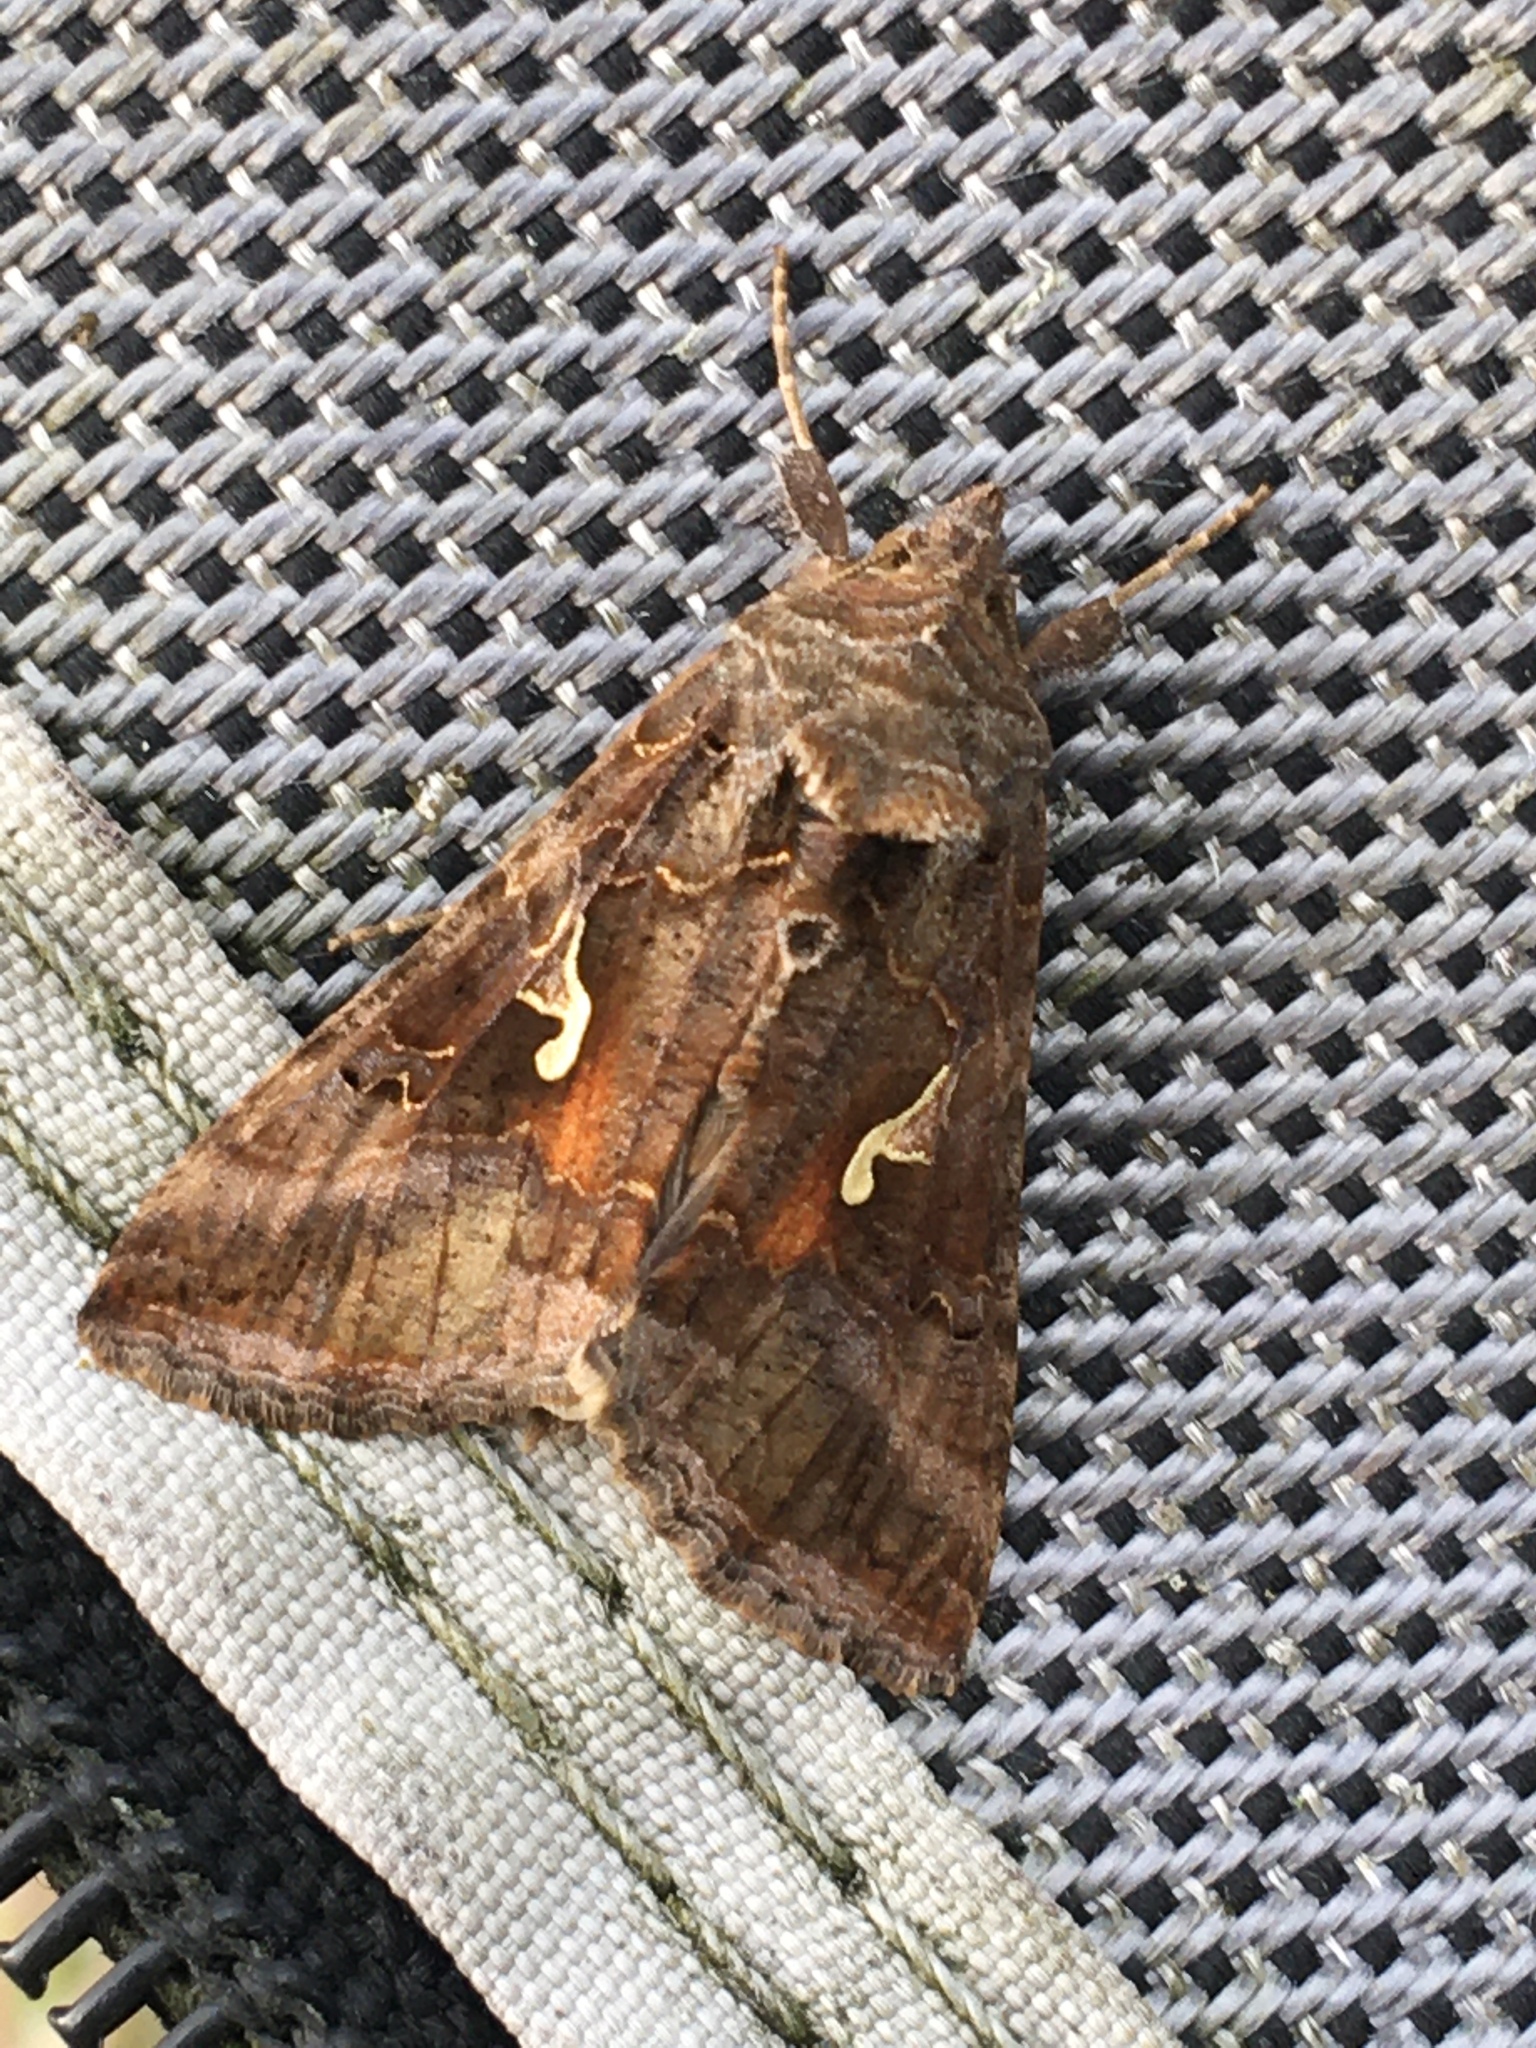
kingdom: Animalia
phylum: Arthropoda
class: Insecta
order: Lepidoptera
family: Noctuidae
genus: Autographa
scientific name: Autographa gamma
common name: Silver y
